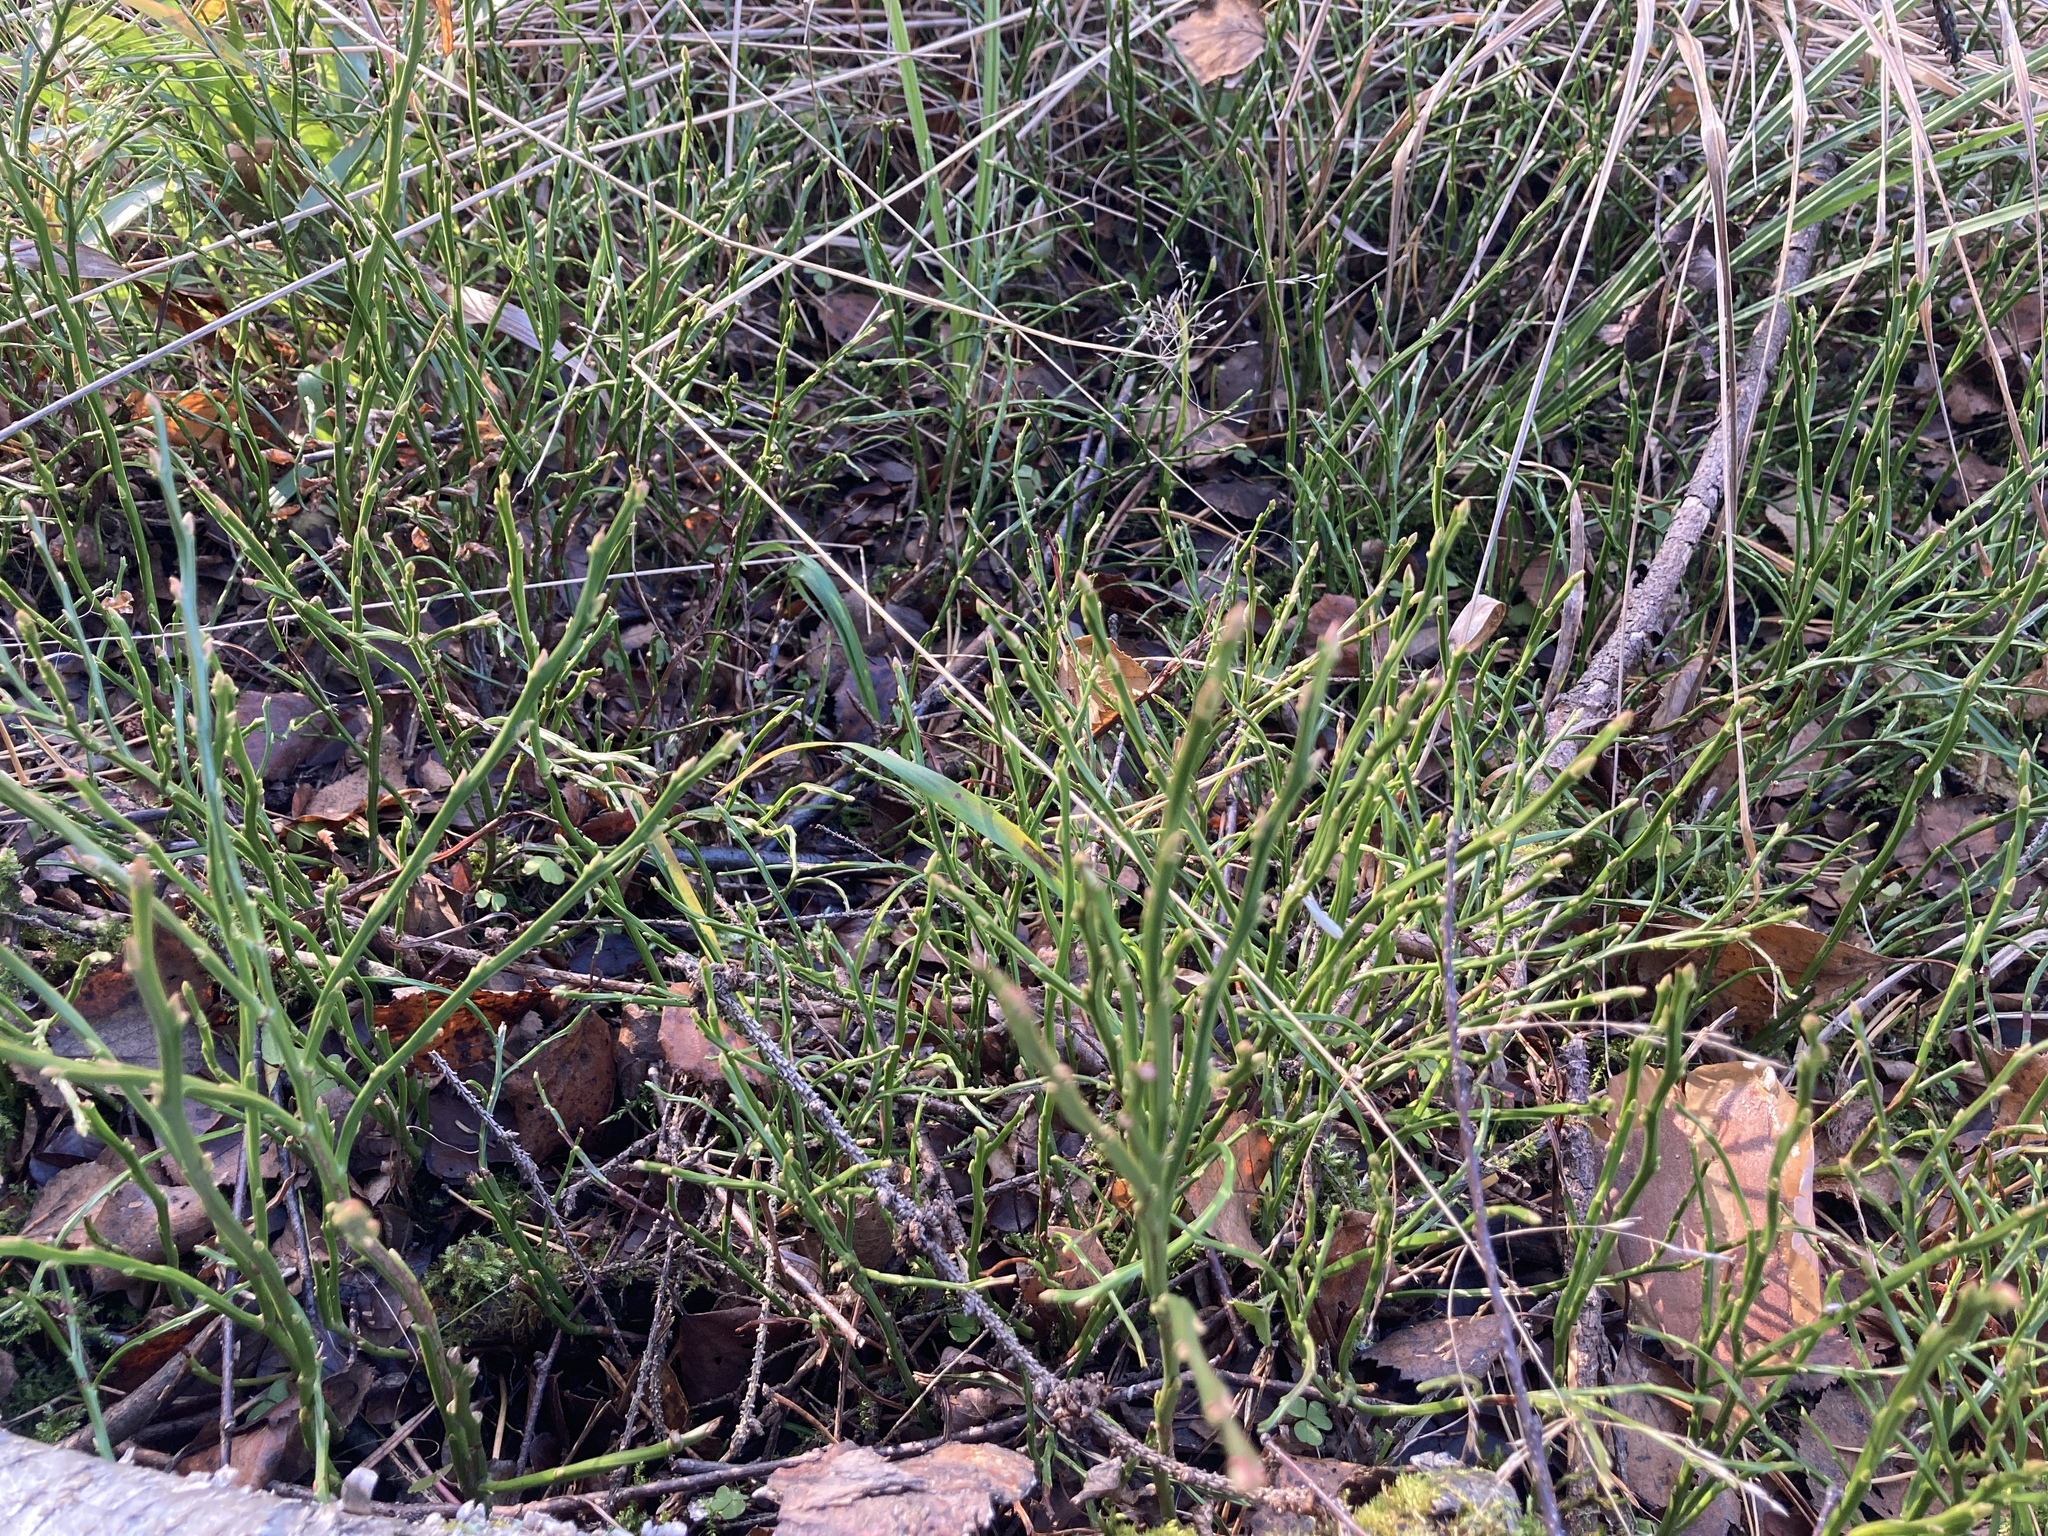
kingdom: Plantae
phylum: Tracheophyta
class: Magnoliopsida
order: Ericales
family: Ericaceae
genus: Vaccinium
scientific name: Vaccinium myrtillus
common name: Bilberry
